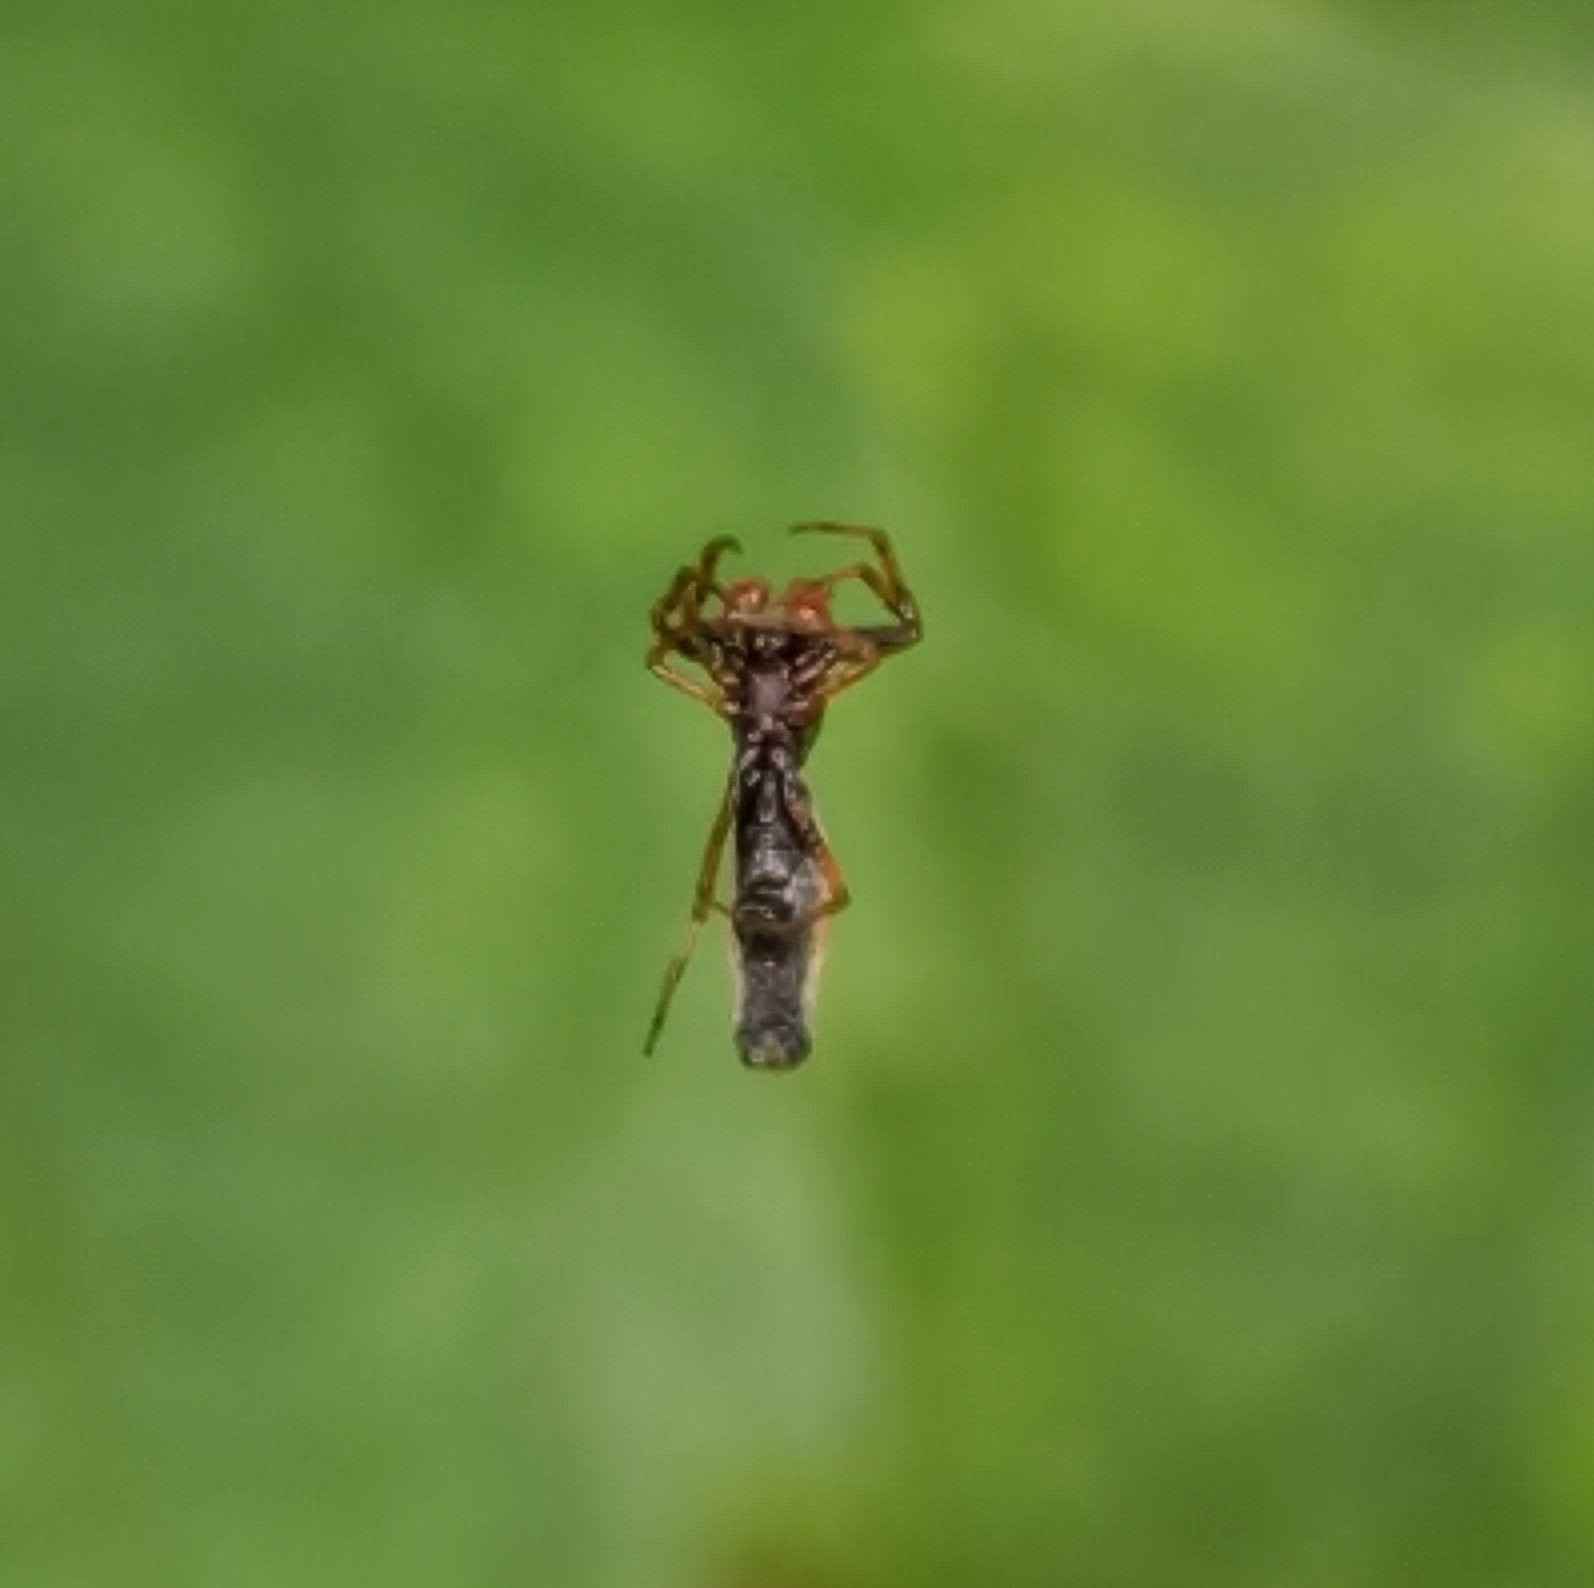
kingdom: Animalia
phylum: Arthropoda
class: Arachnida
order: Araneae
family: Araneidae
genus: Micrathena
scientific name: Micrathena gracilis
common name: Orb weavers
